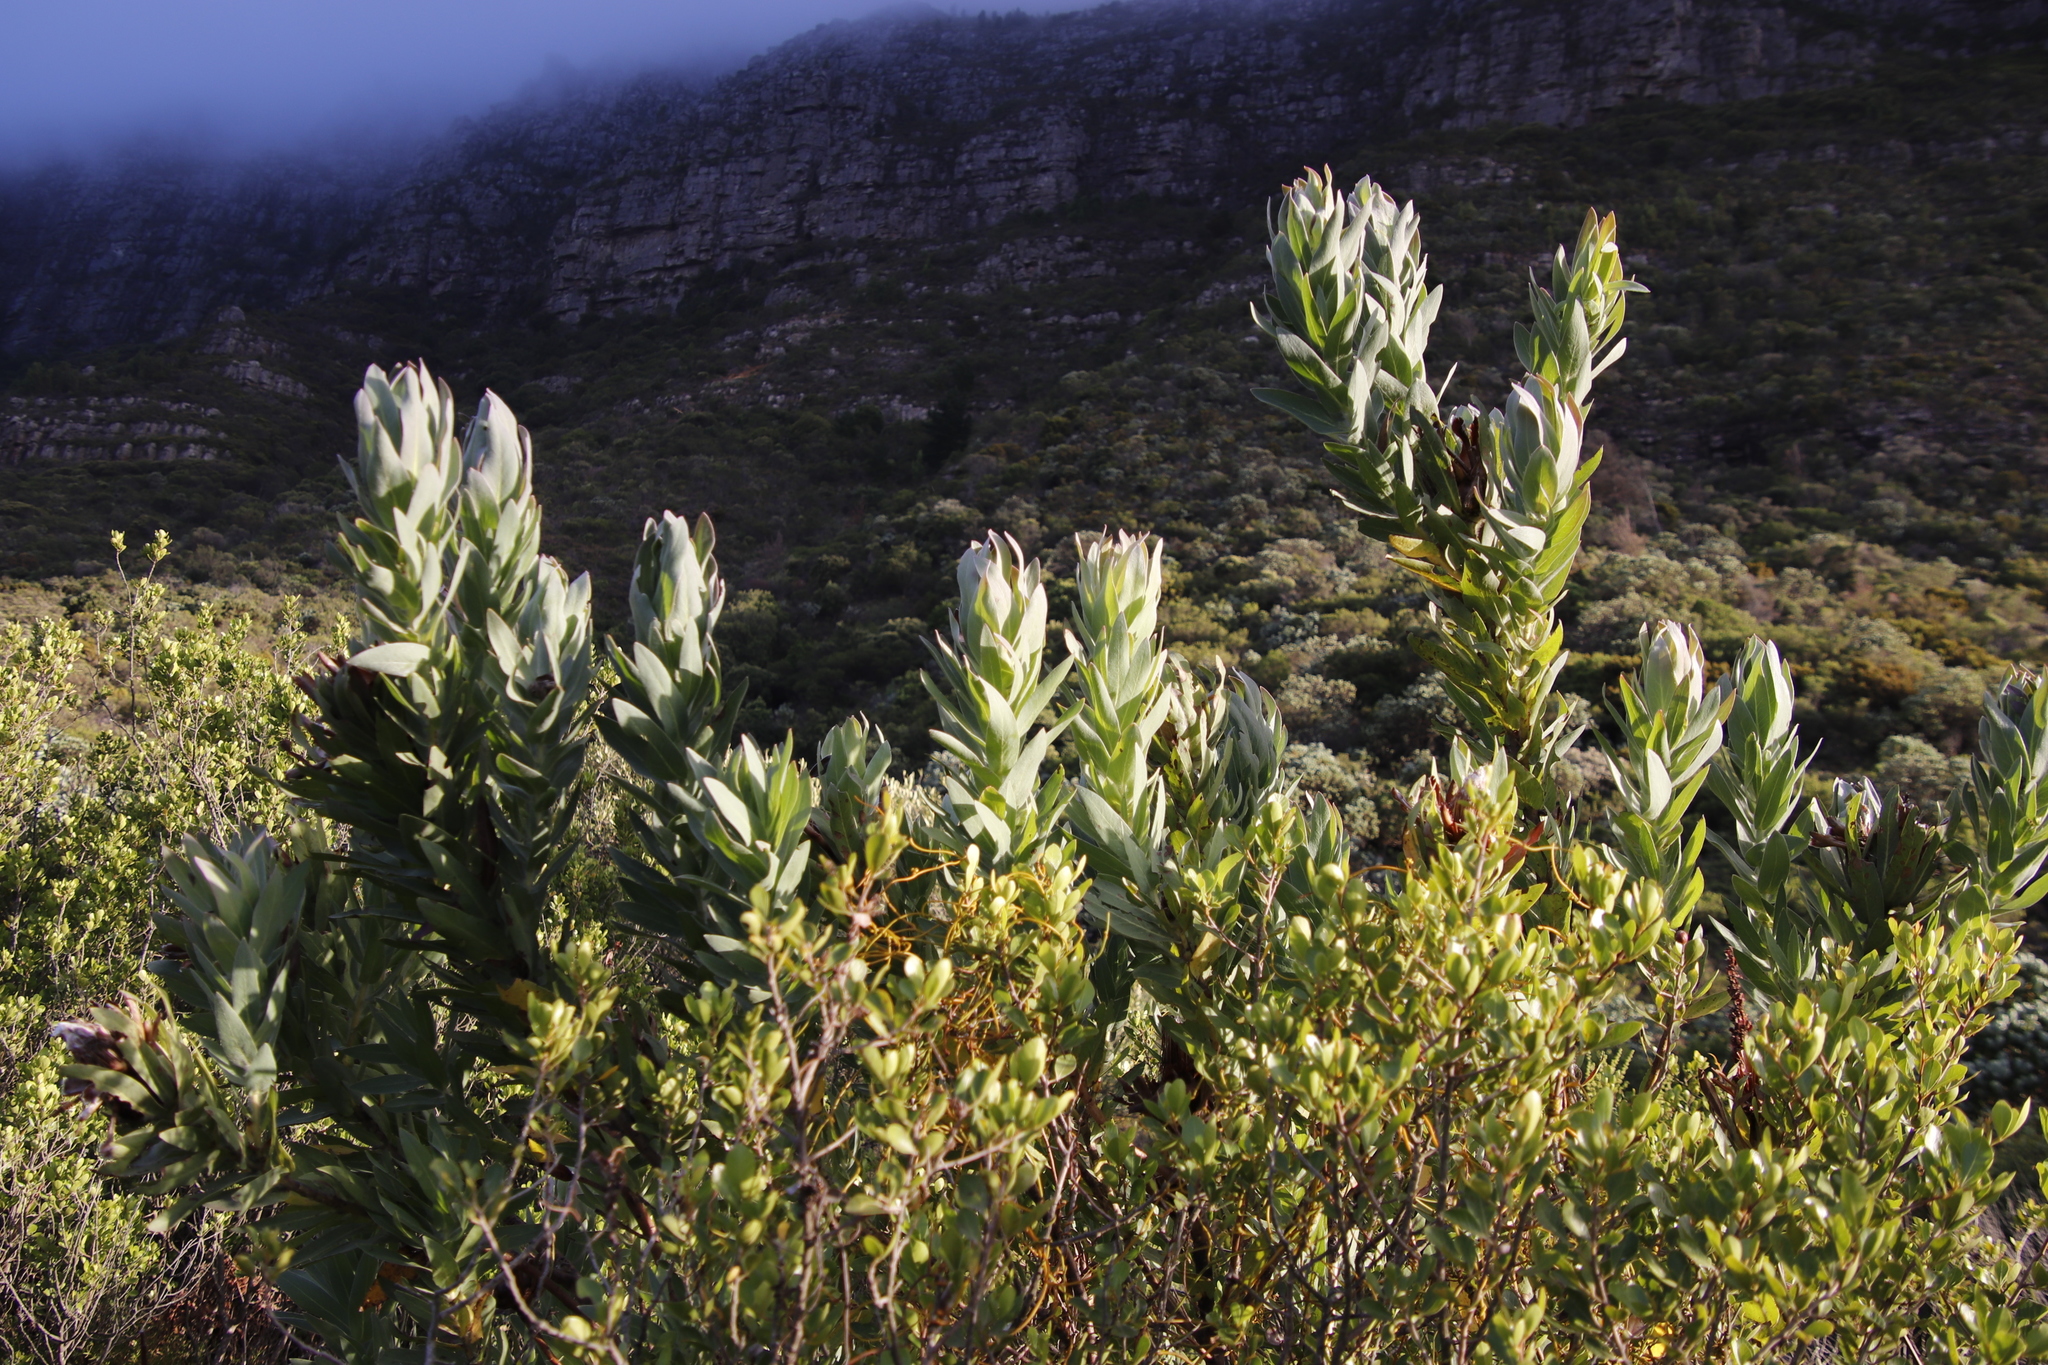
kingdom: Plantae
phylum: Tracheophyta
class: Magnoliopsida
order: Proteales
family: Proteaceae
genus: Protea
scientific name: Protea coronata
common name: Green sugarbush
